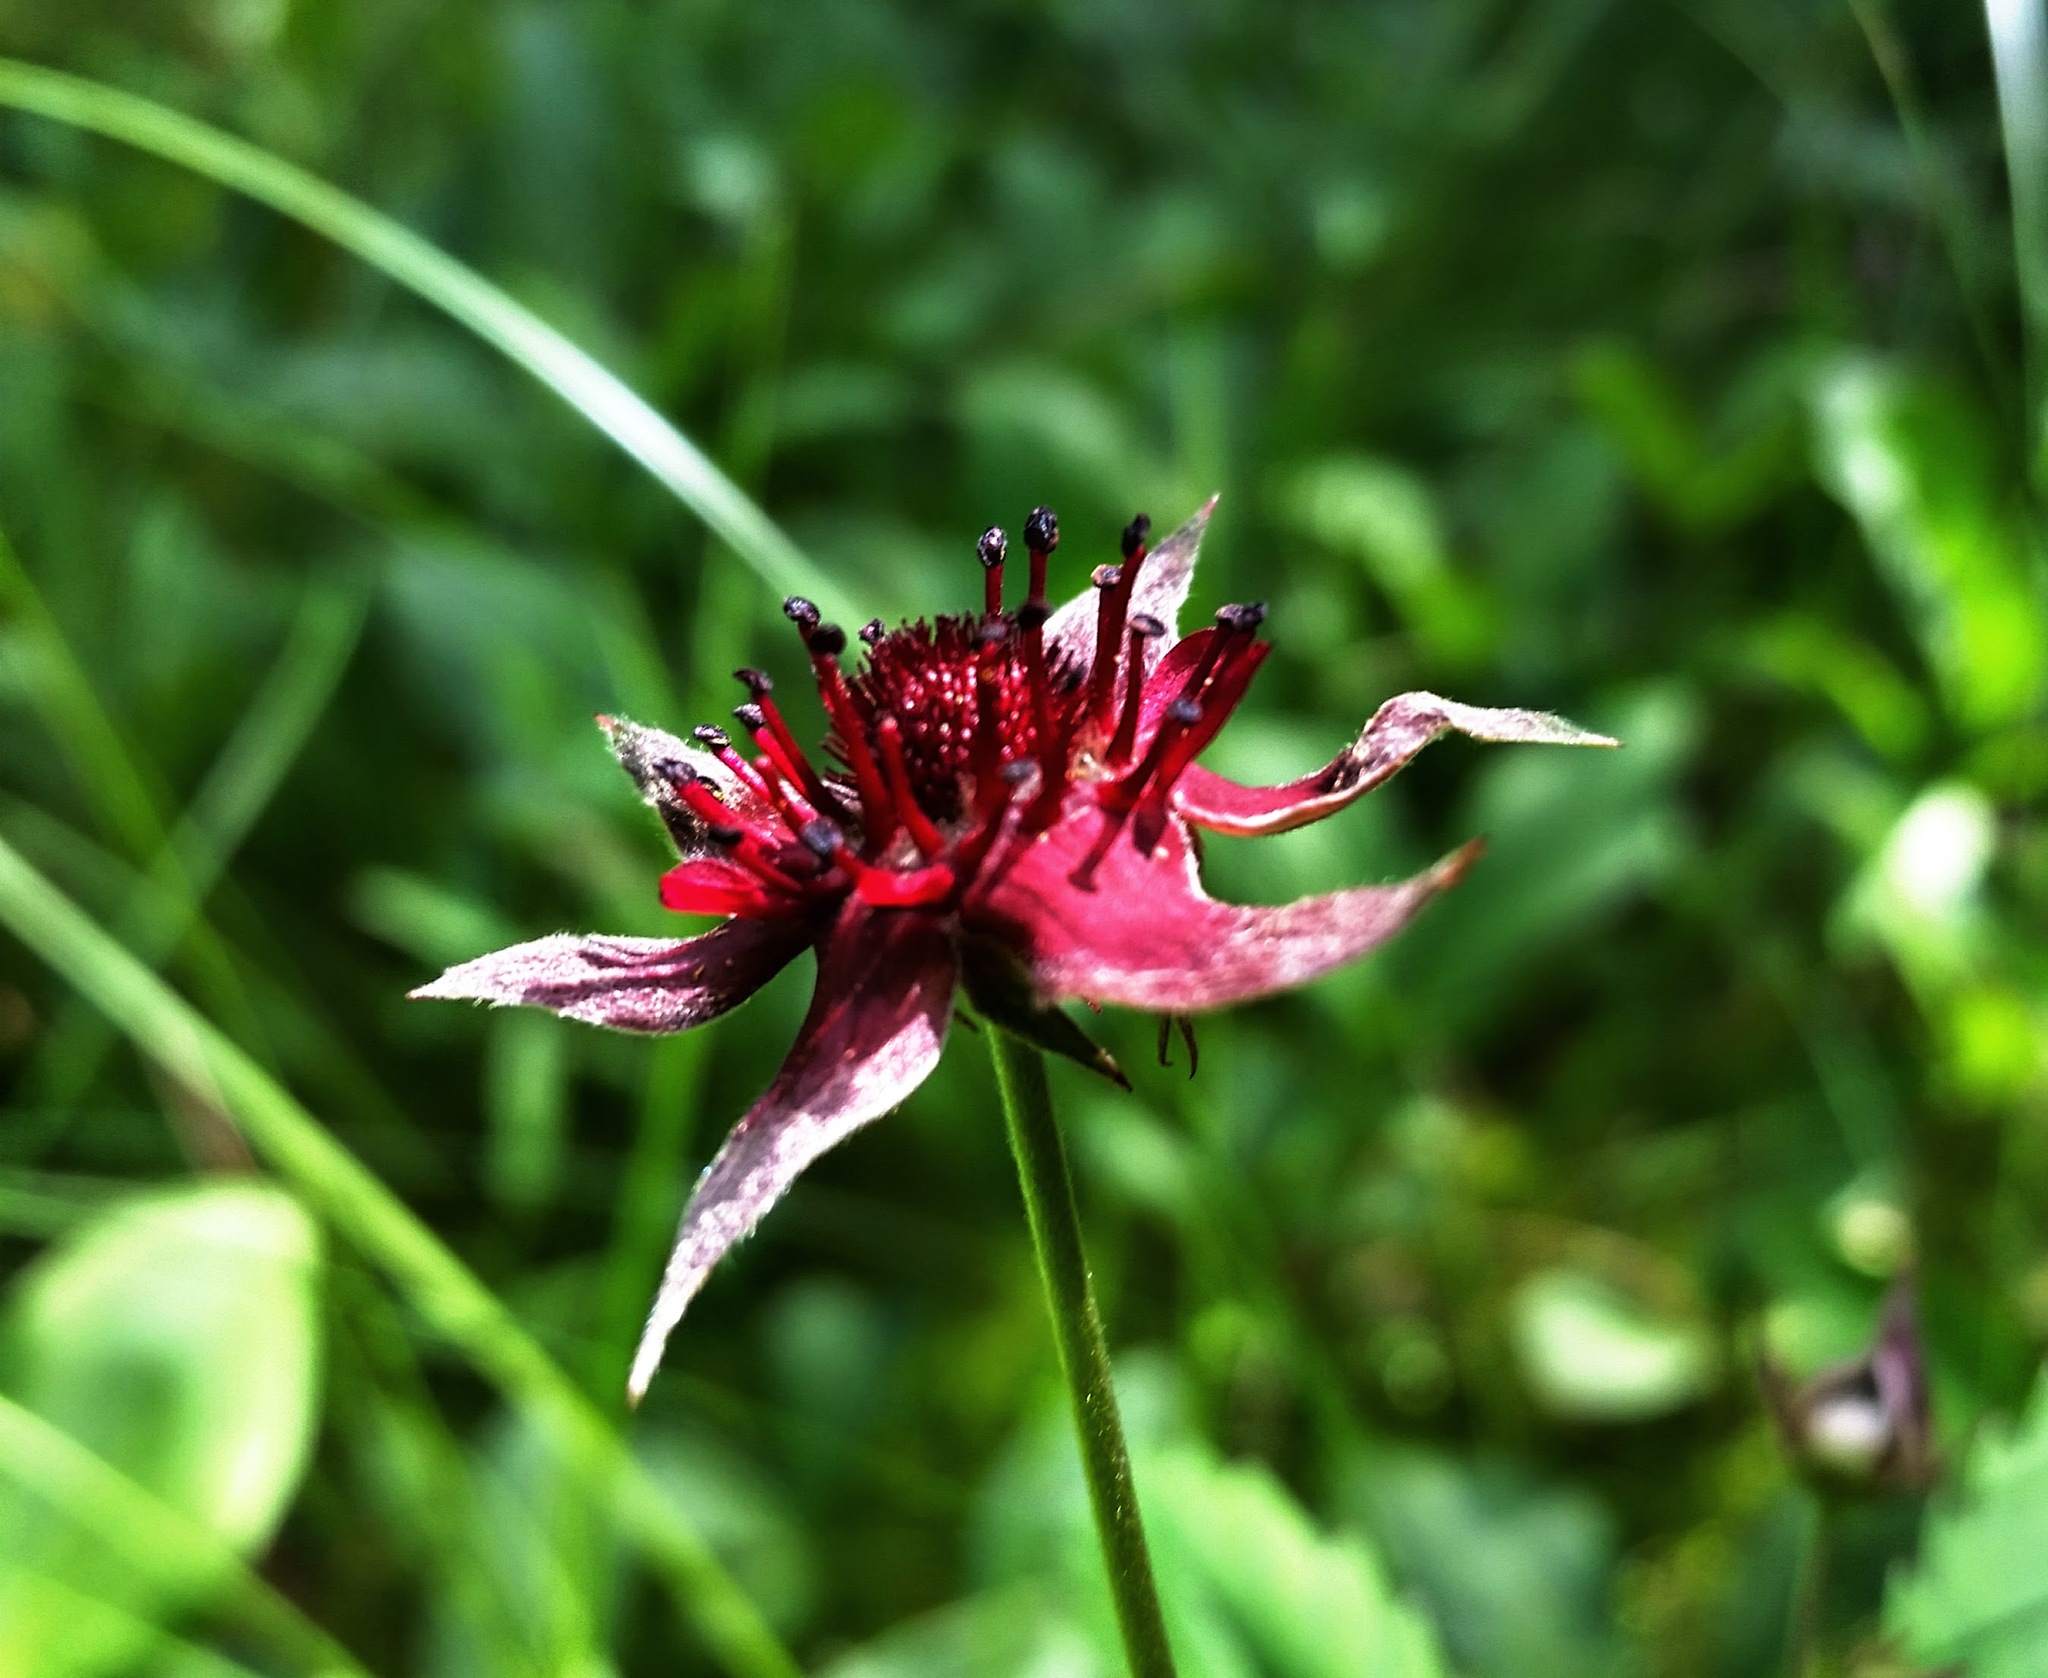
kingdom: Plantae
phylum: Tracheophyta
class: Magnoliopsida
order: Rosales
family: Rosaceae
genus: Comarum
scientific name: Comarum palustre
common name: Marsh cinquefoil
